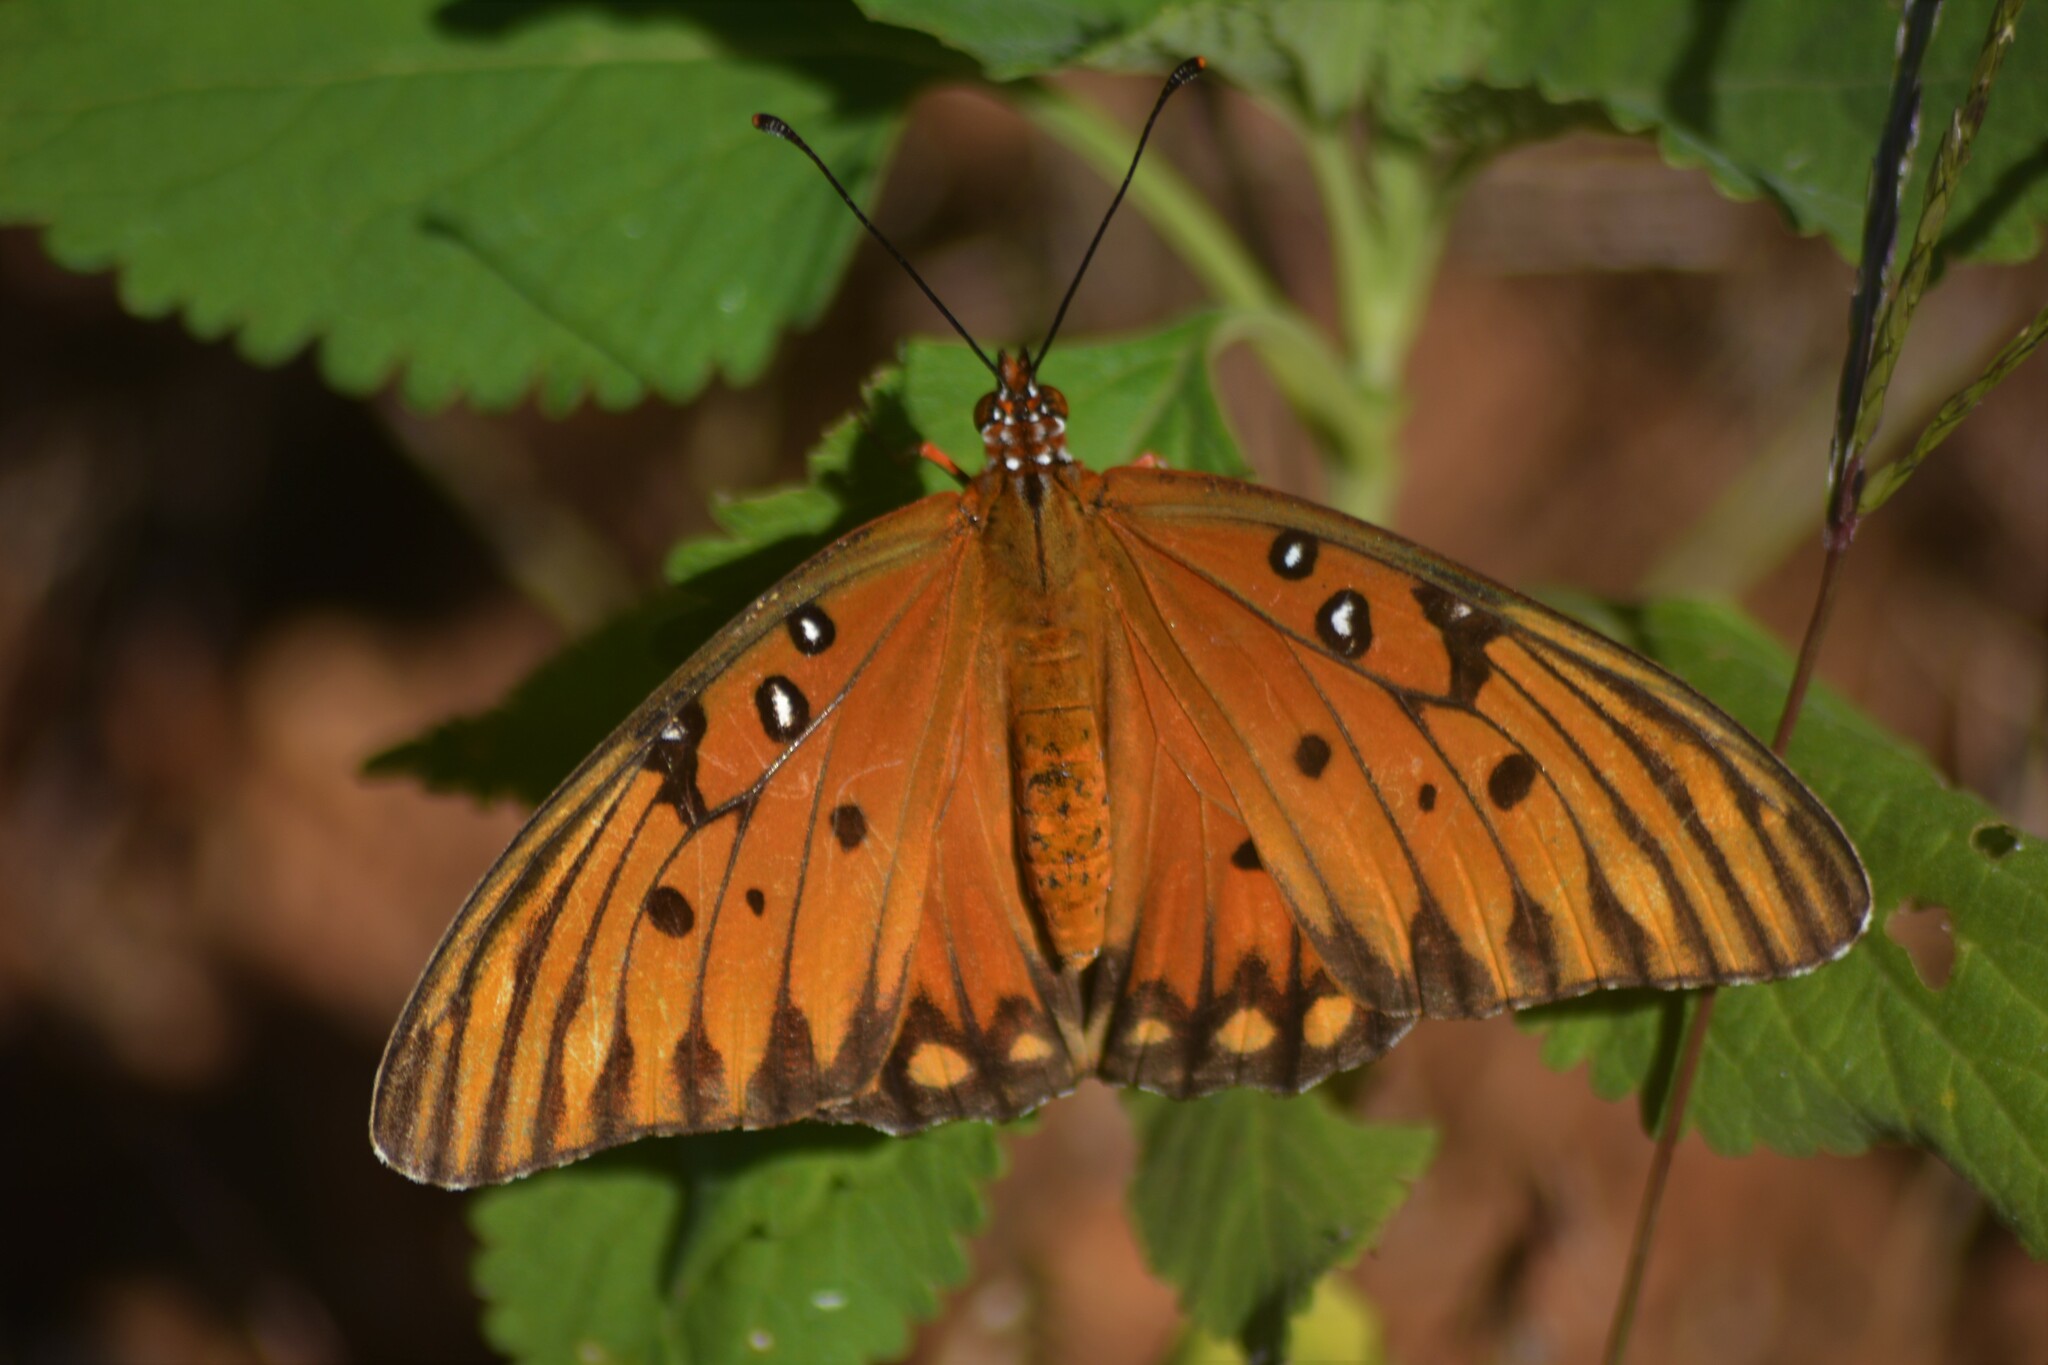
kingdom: Animalia
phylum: Arthropoda
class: Insecta
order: Lepidoptera
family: Nymphalidae
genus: Dione
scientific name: Dione vanillae
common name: Gulf fritillary
